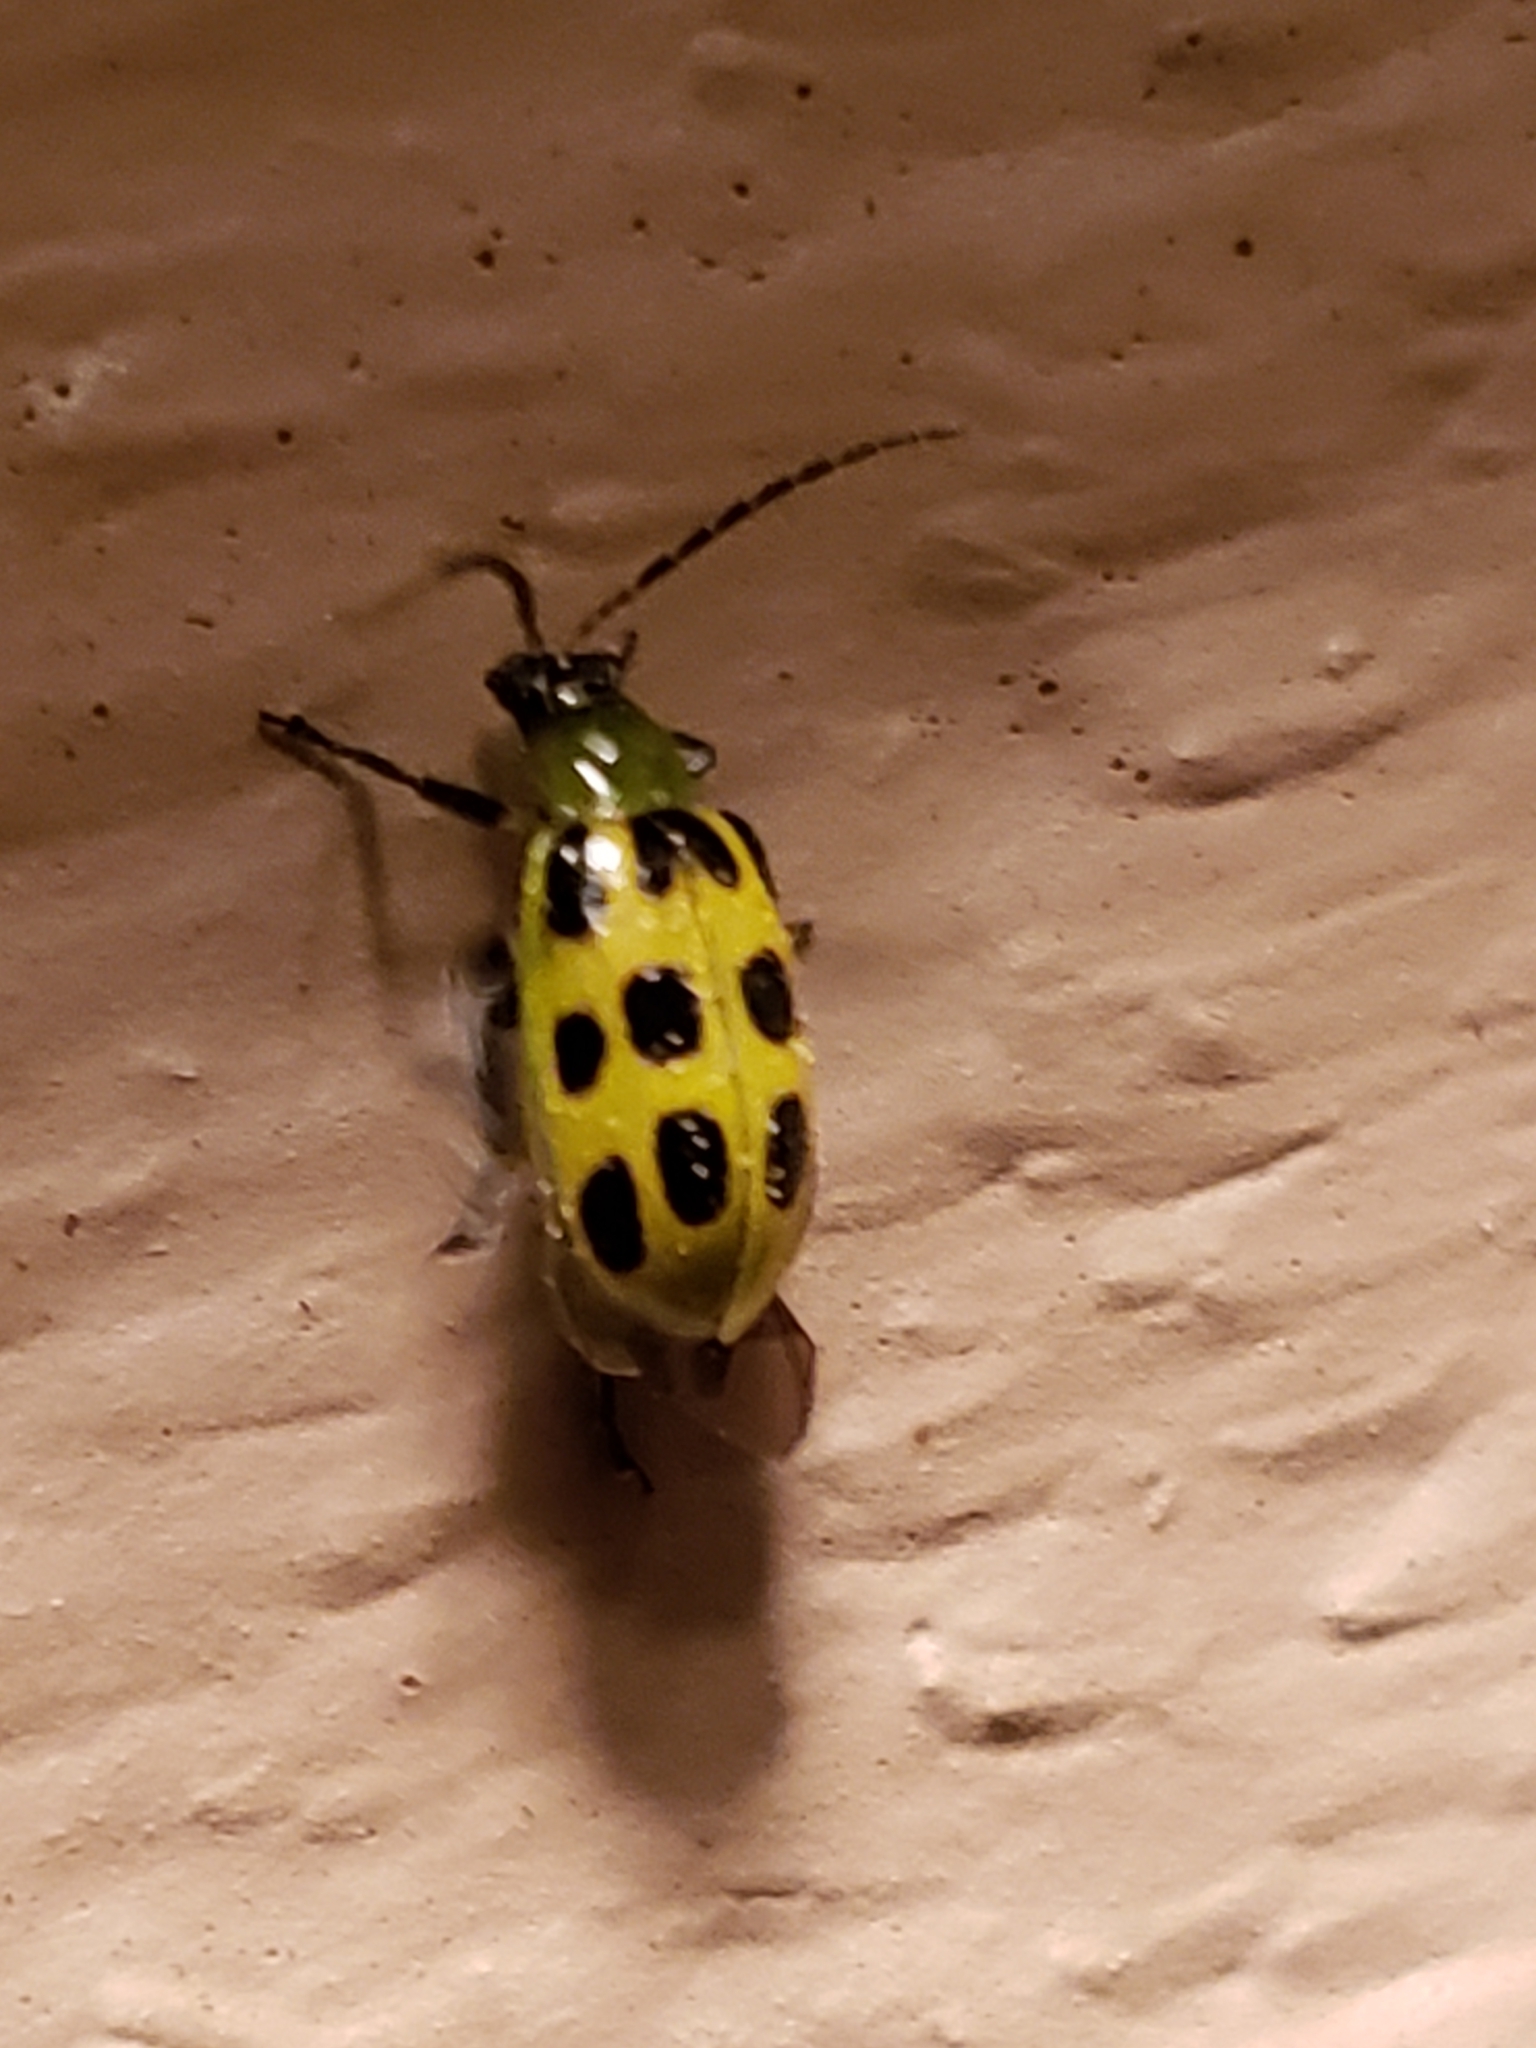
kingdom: Animalia
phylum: Arthropoda
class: Insecta
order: Coleoptera
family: Chrysomelidae
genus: Diabrotica
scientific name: Diabrotica undecimpunctata
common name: Spotted cucumber beetle
